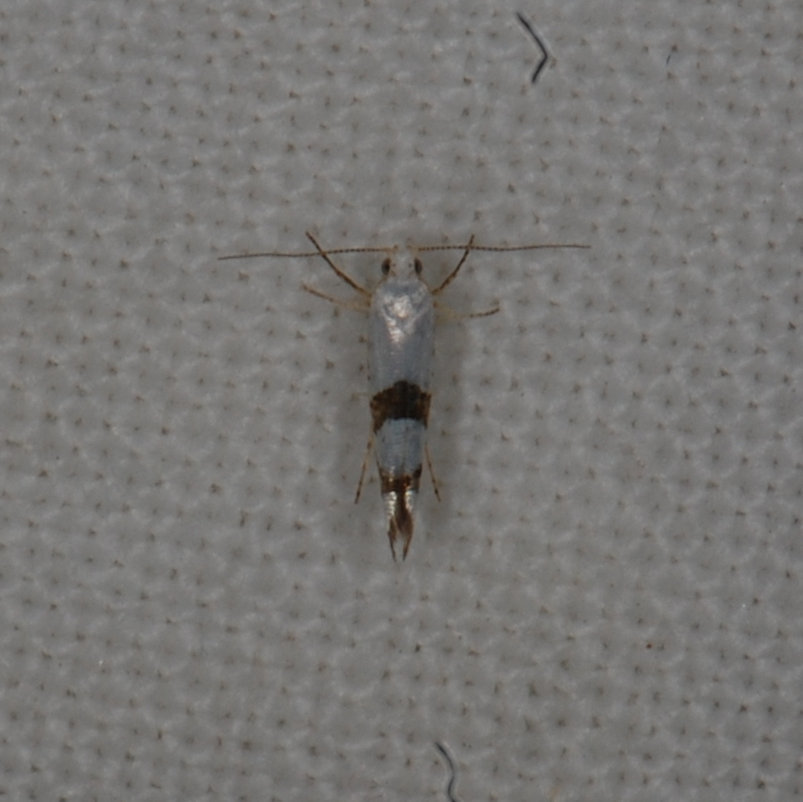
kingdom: Animalia
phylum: Arthropoda
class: Insecta
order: Lepidoptera
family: Argyresthiidae
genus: Argyresthia
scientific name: Argyresthia oreasella
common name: Cherry shoot borer moth
